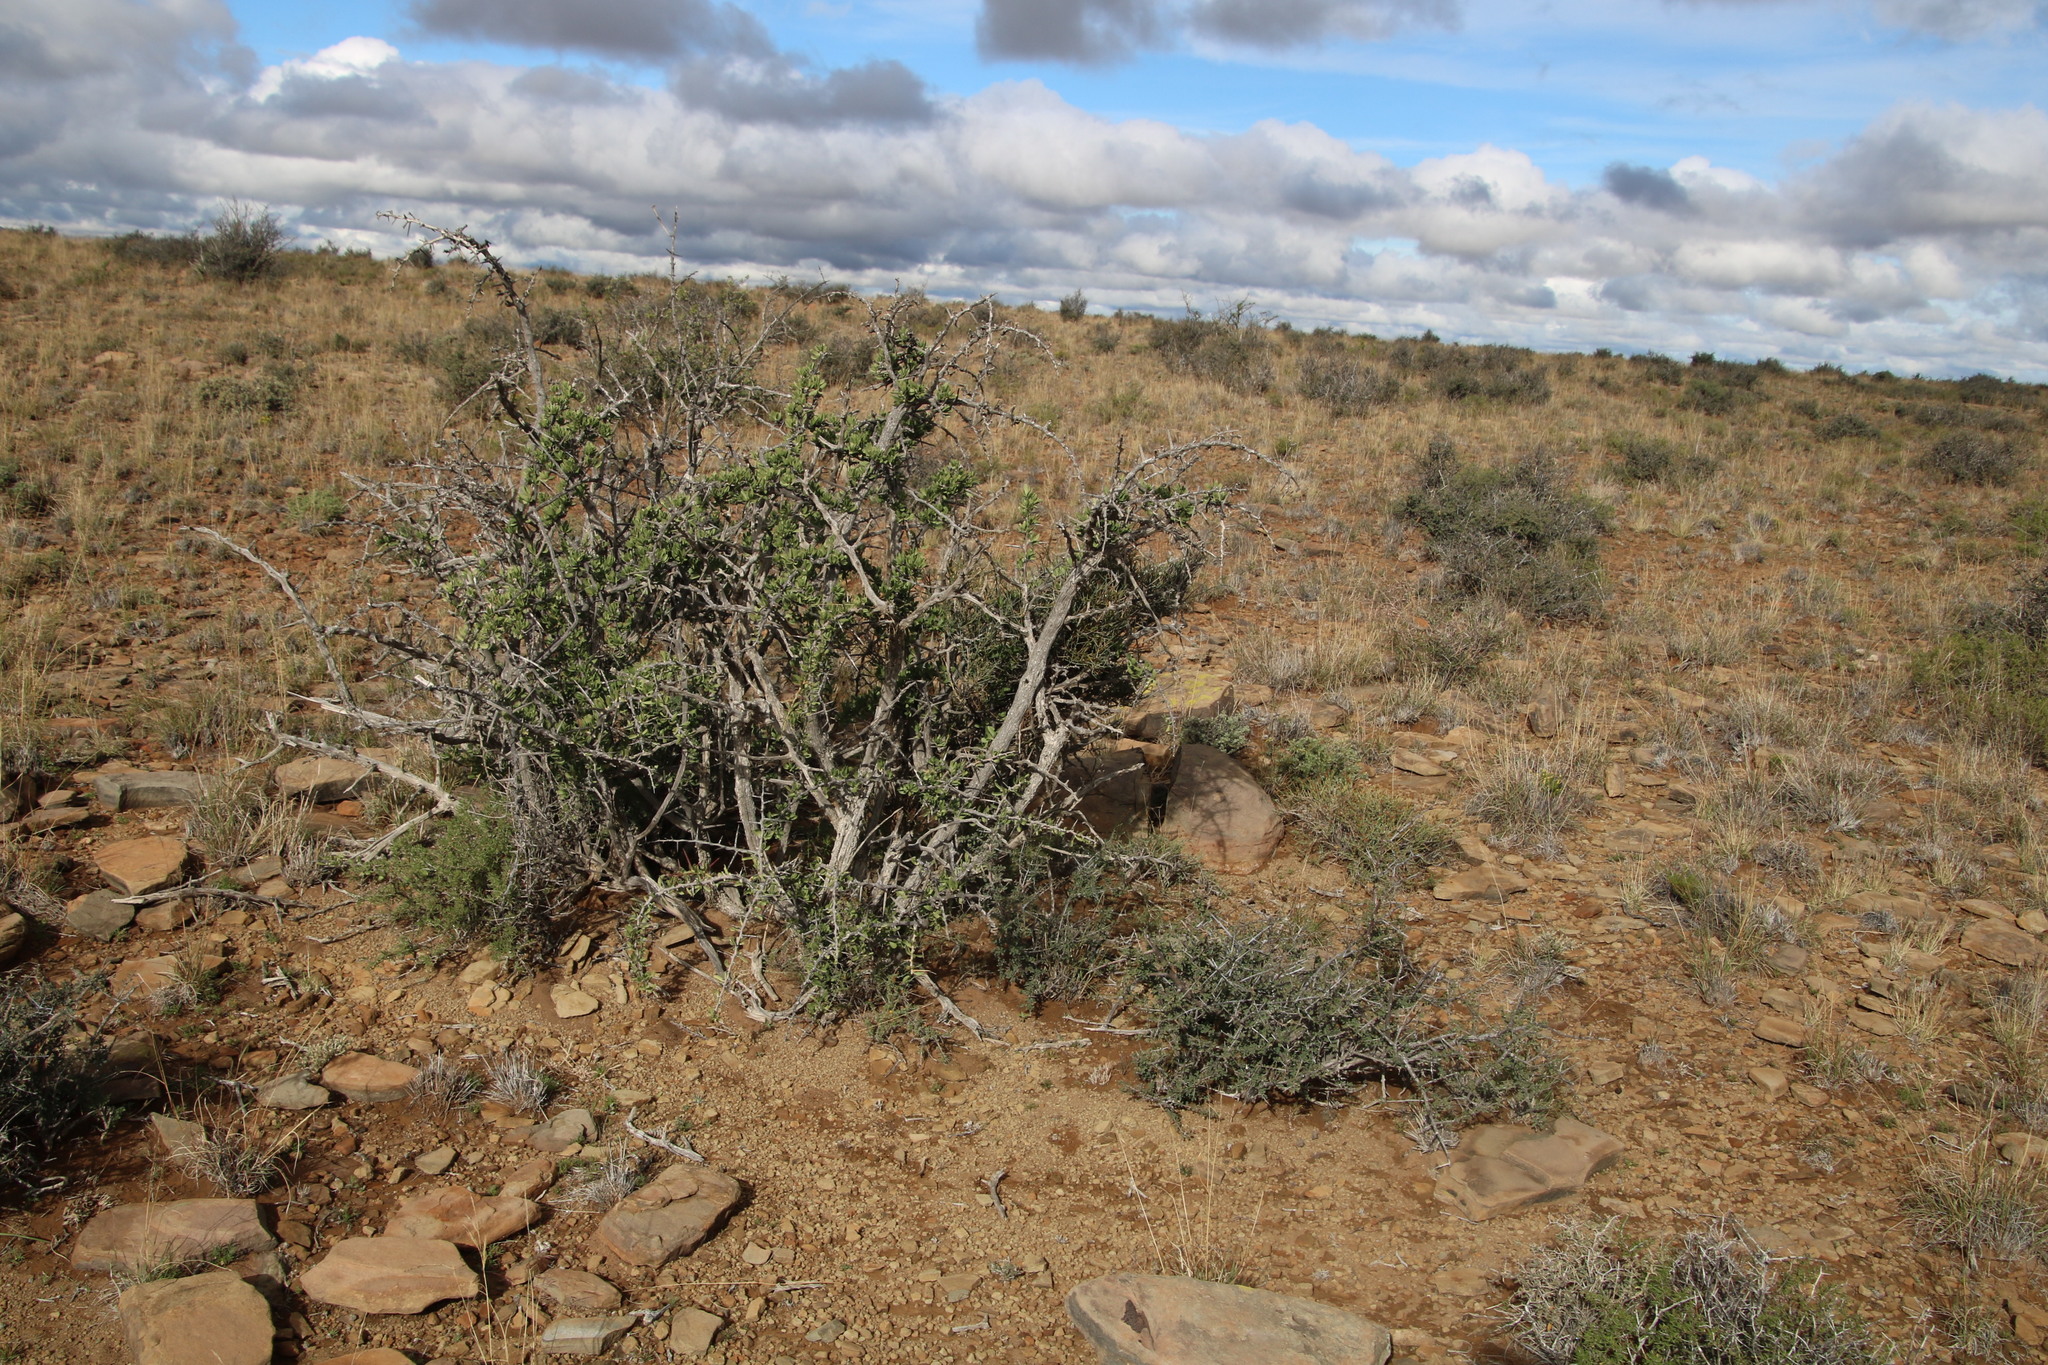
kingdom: Plantae
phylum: Tracheophyta
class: Magnoliopsida
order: Santalales
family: Thesiaceae
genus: Lacomucinaea
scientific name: Lacomucinaea lineata
